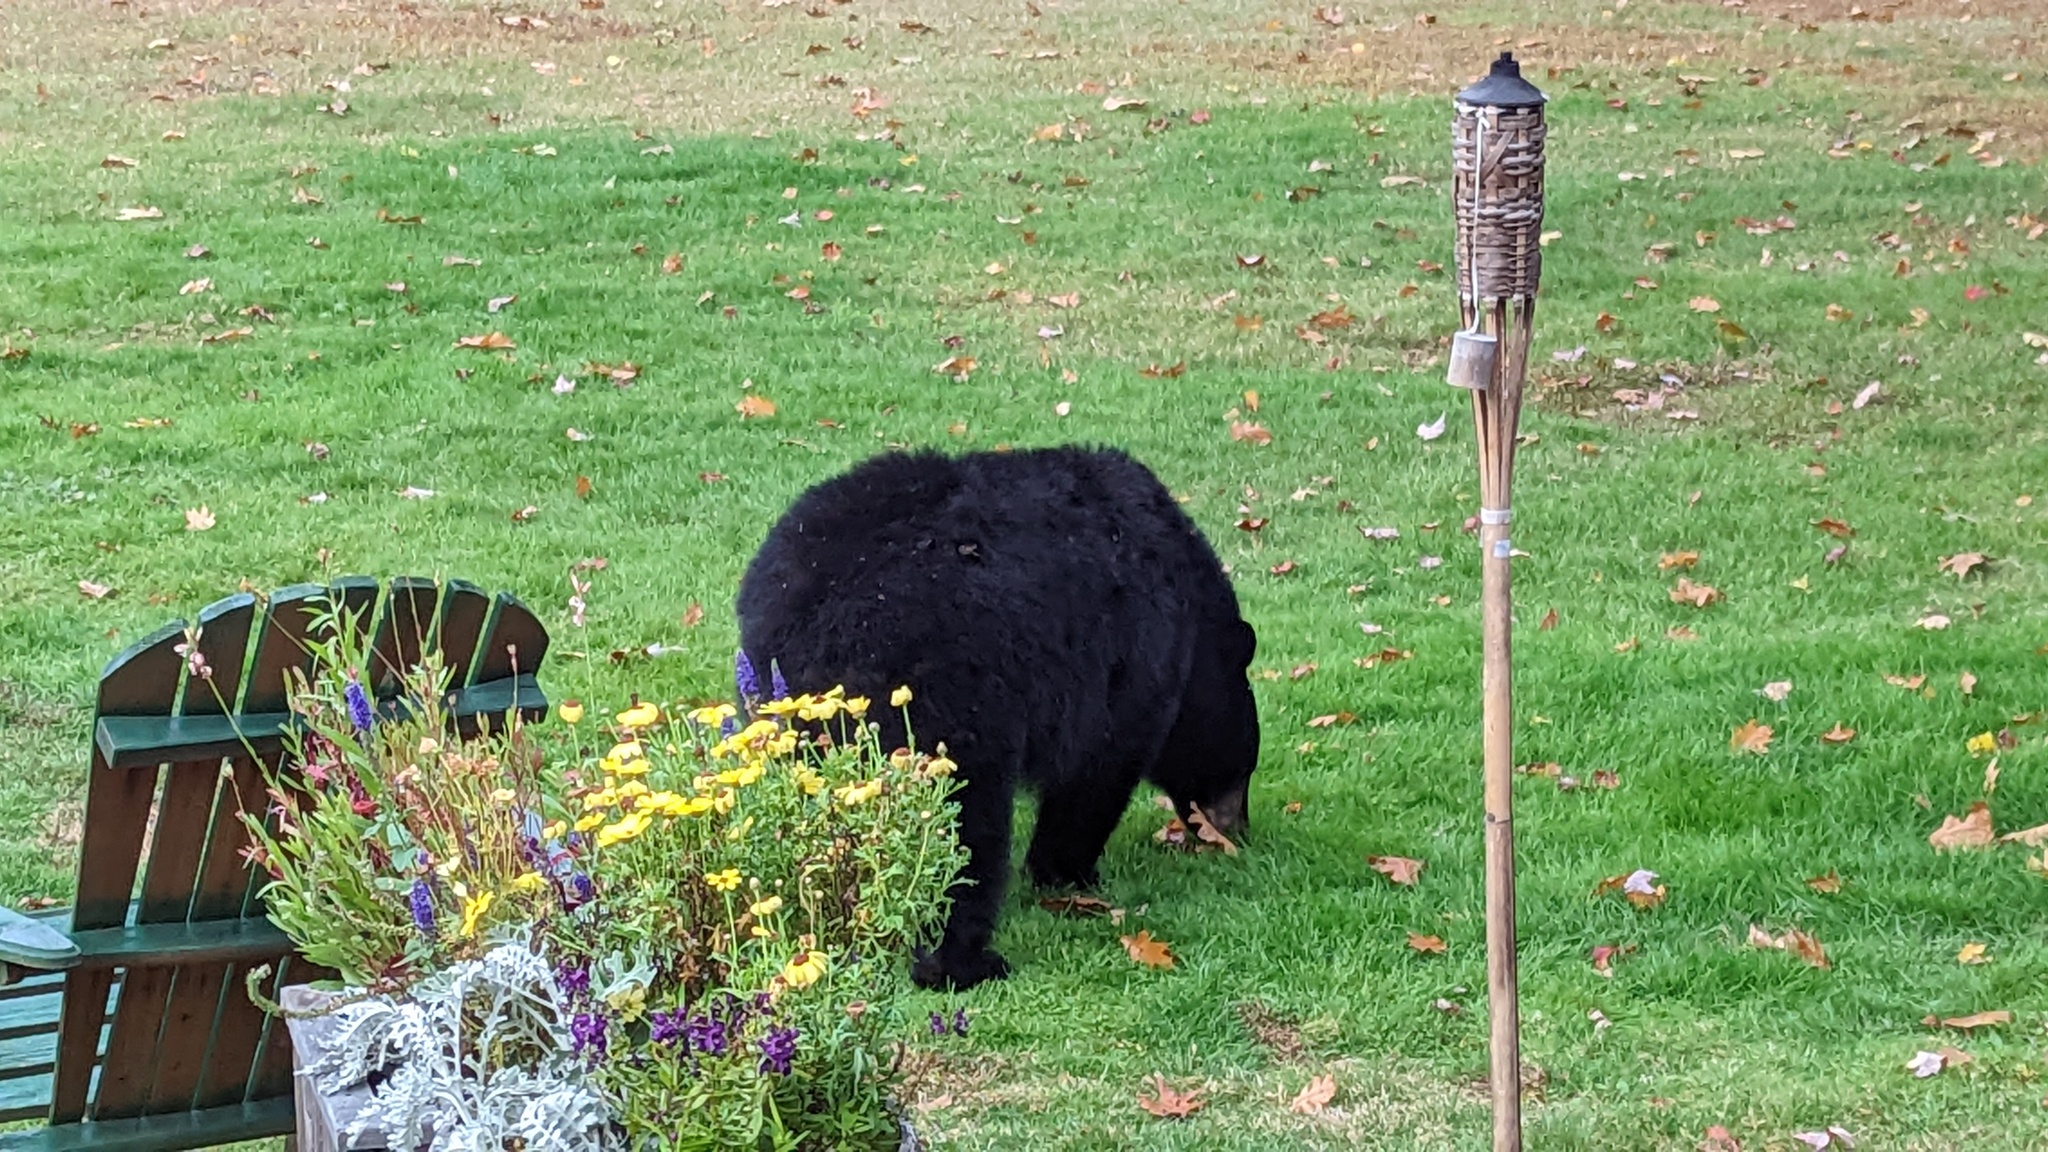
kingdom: Animalia
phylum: Chordata
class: Mammalia
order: Carnivora
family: Ursidae
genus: Ursus
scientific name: Ursus americanus
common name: American black bear
